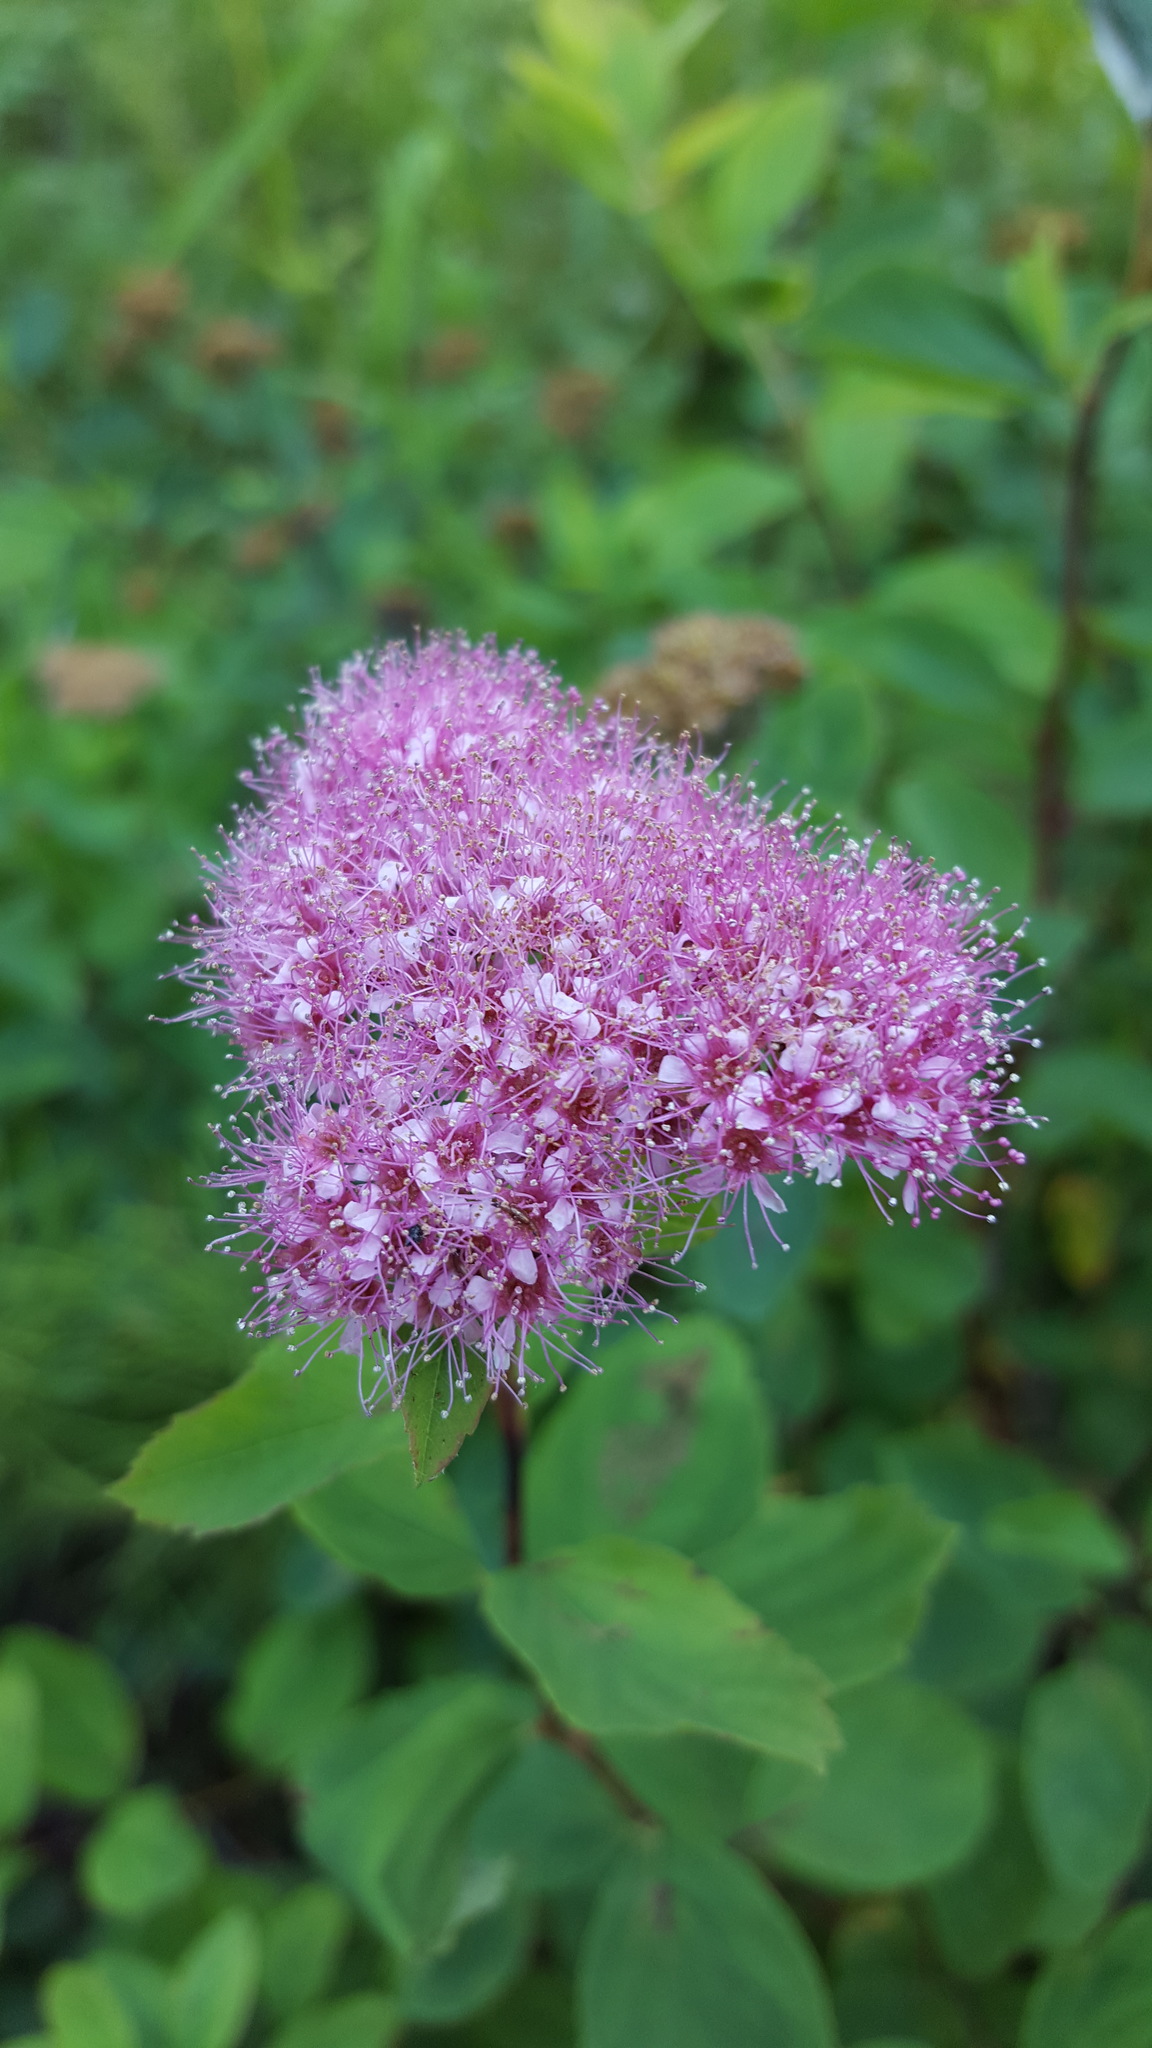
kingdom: Plantae
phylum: Tracheophyta
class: Magnoliopsida
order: Rosales
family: Rosaceae
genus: Spiraea
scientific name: Spiraea splendens
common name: Subalpine meadowsweet
